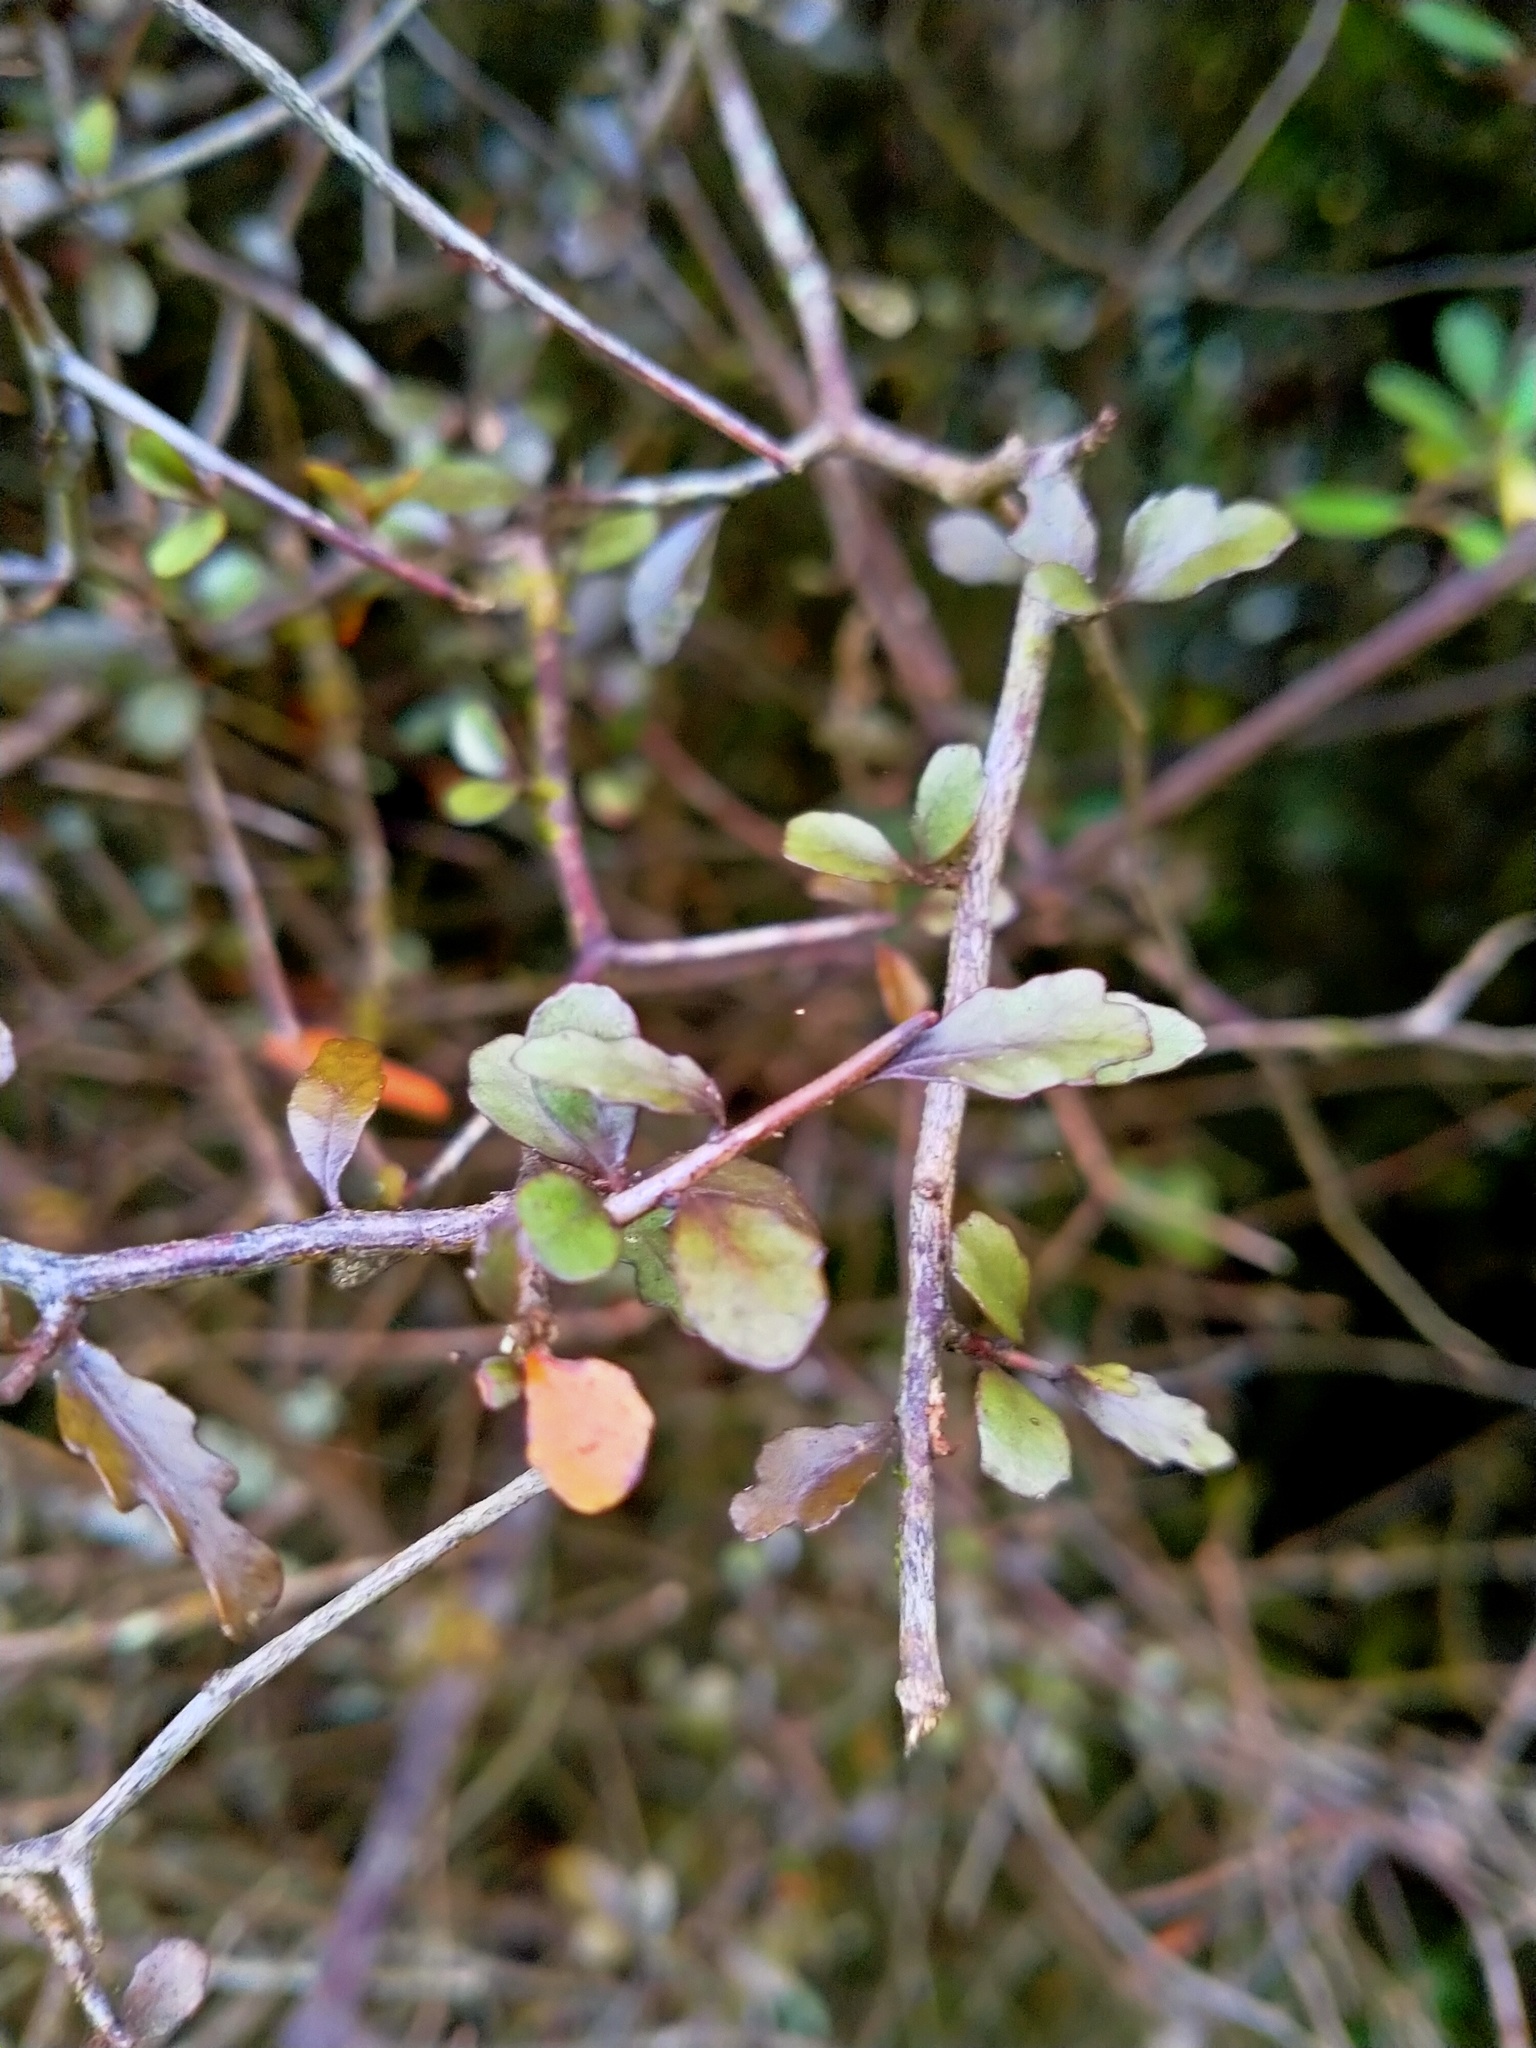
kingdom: Plantae
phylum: Tracheophyta
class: Magnoliopsida
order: Oxalidales
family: Elaeocarpaceae
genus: Elaeocarpus
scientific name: Elaeocarpus hookerianus
